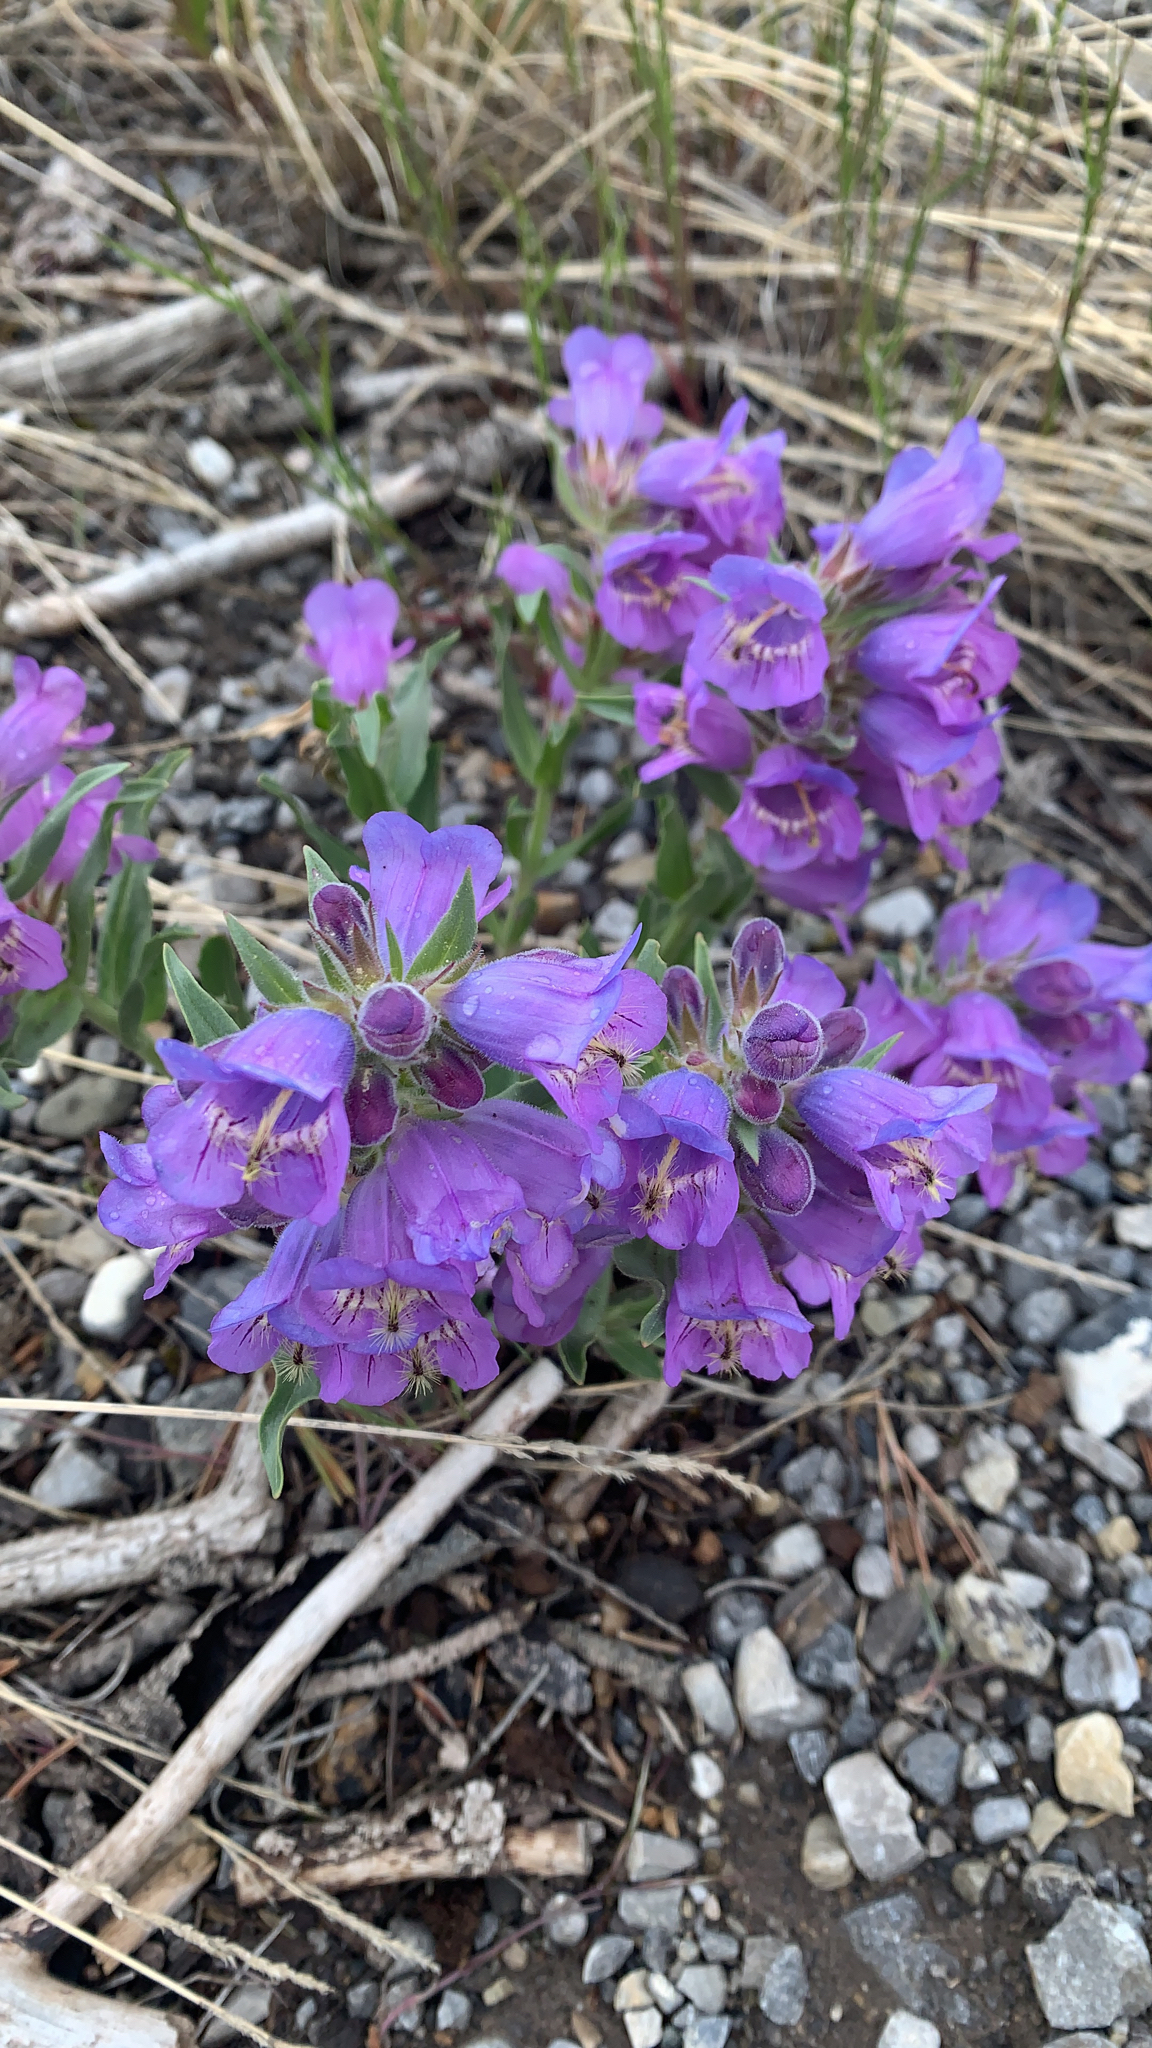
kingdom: Plantae
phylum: Tracheophyta
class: Magnoliopsida
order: Lamiales
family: Plantaginaceae
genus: Penstemon
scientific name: Penstemon eriantherus
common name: Crested beardtongue
